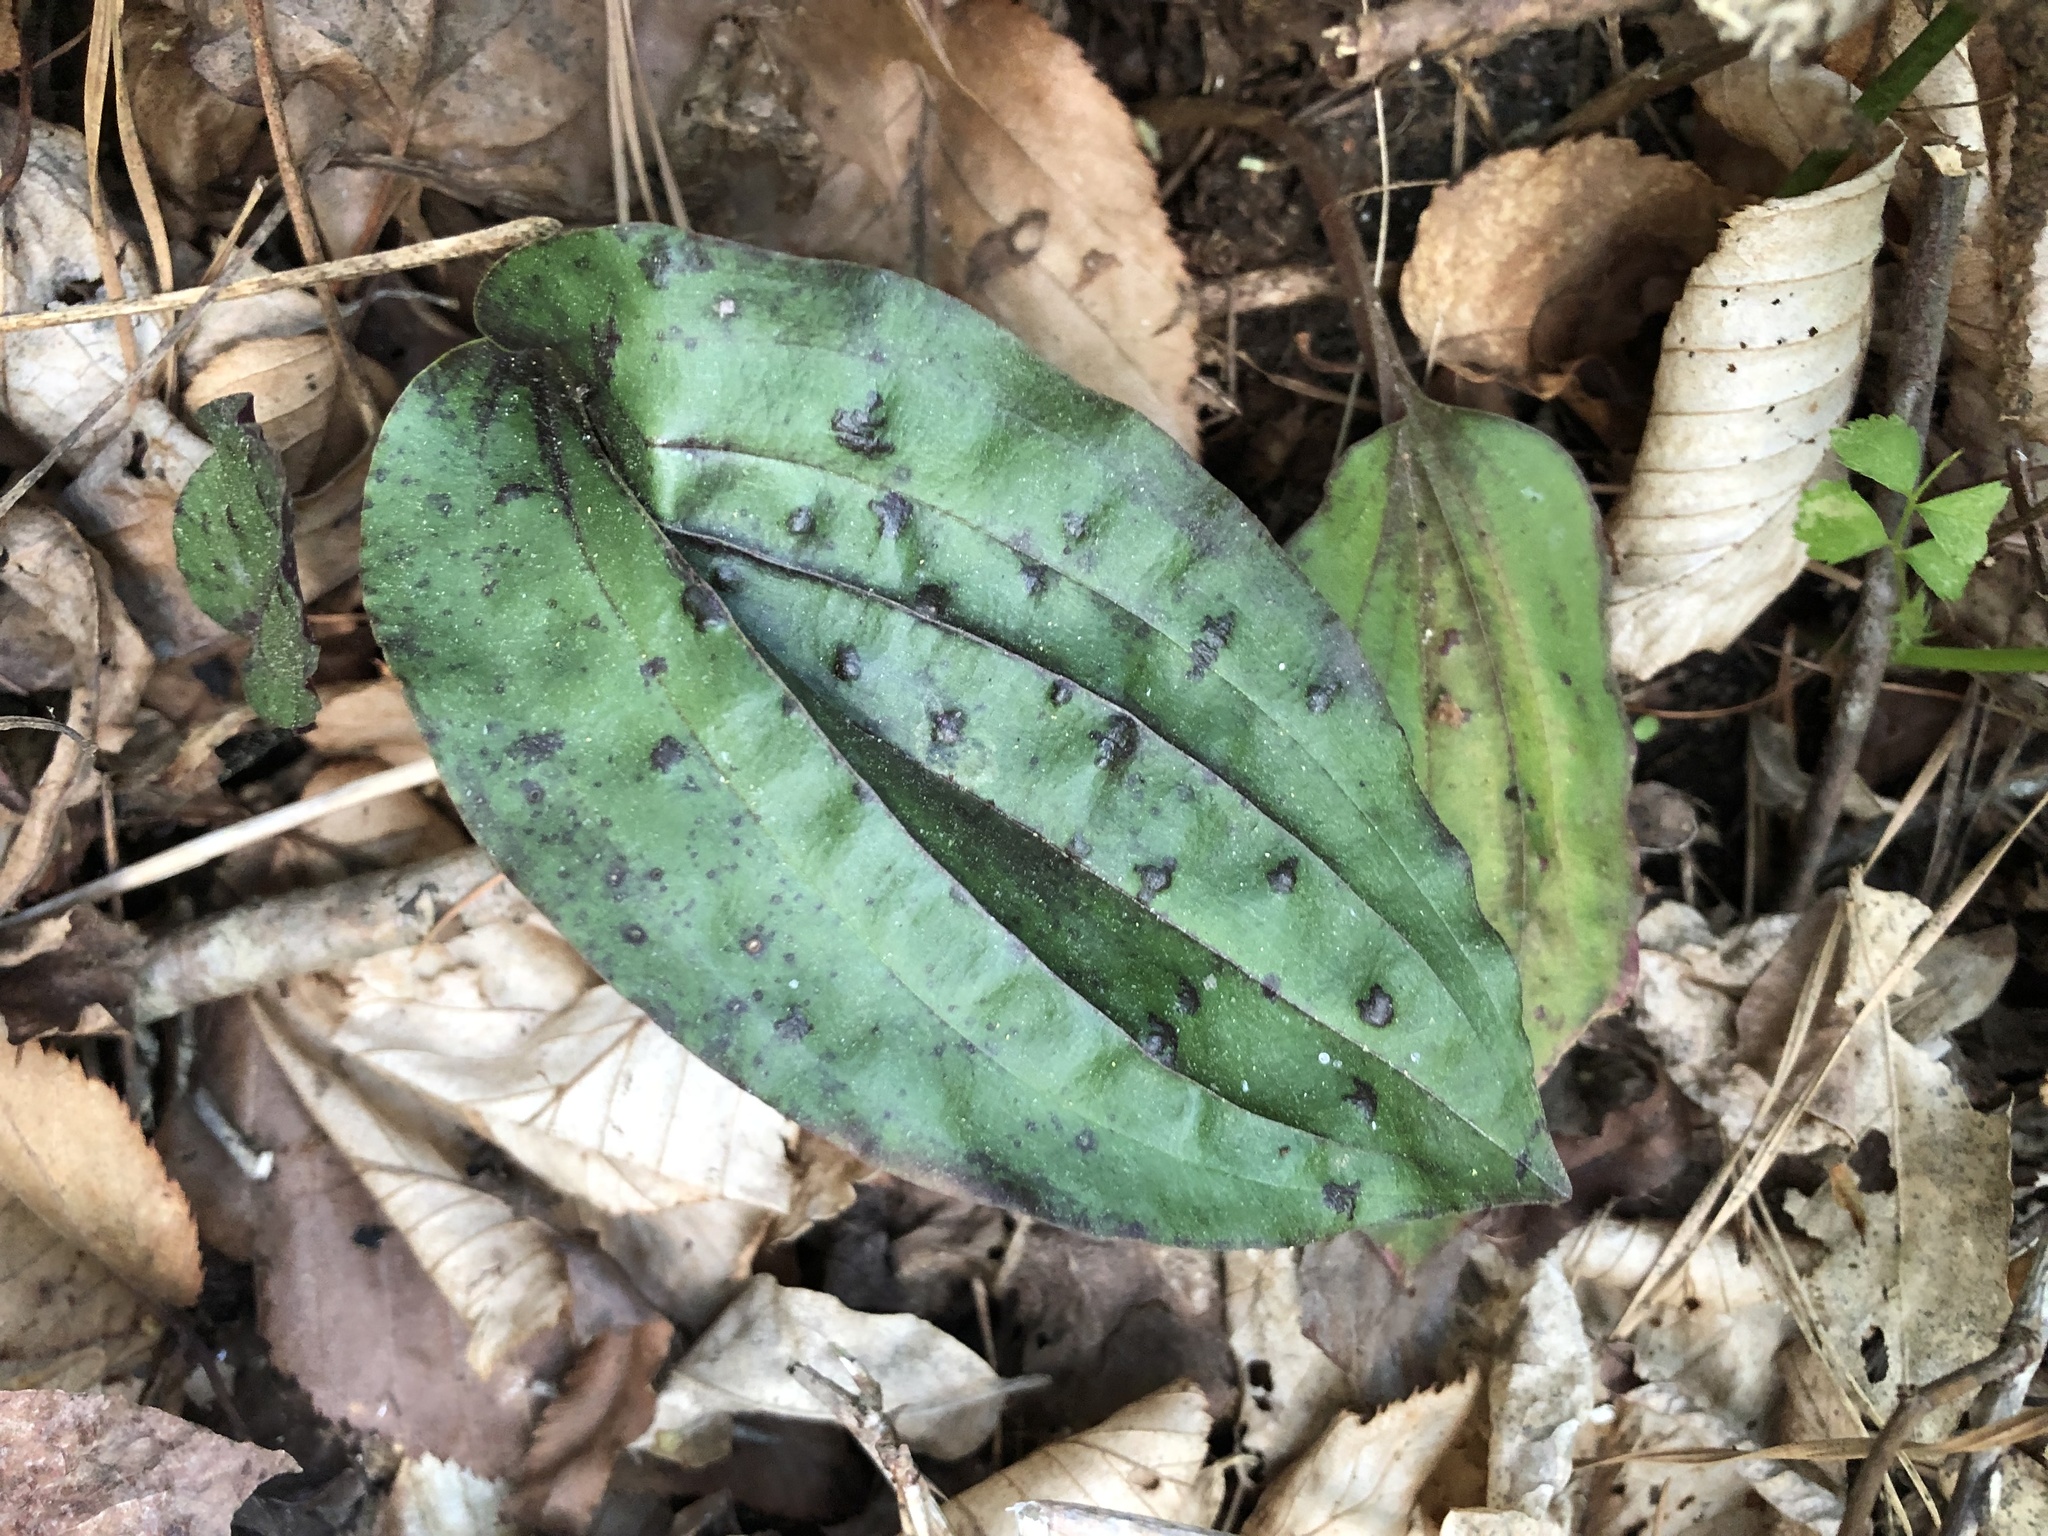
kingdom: Plantae
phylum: Tracheophyta
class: Liliopsida
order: Asparagales
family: Orchidaceae
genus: Tipularia
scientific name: Tipularia discolor
